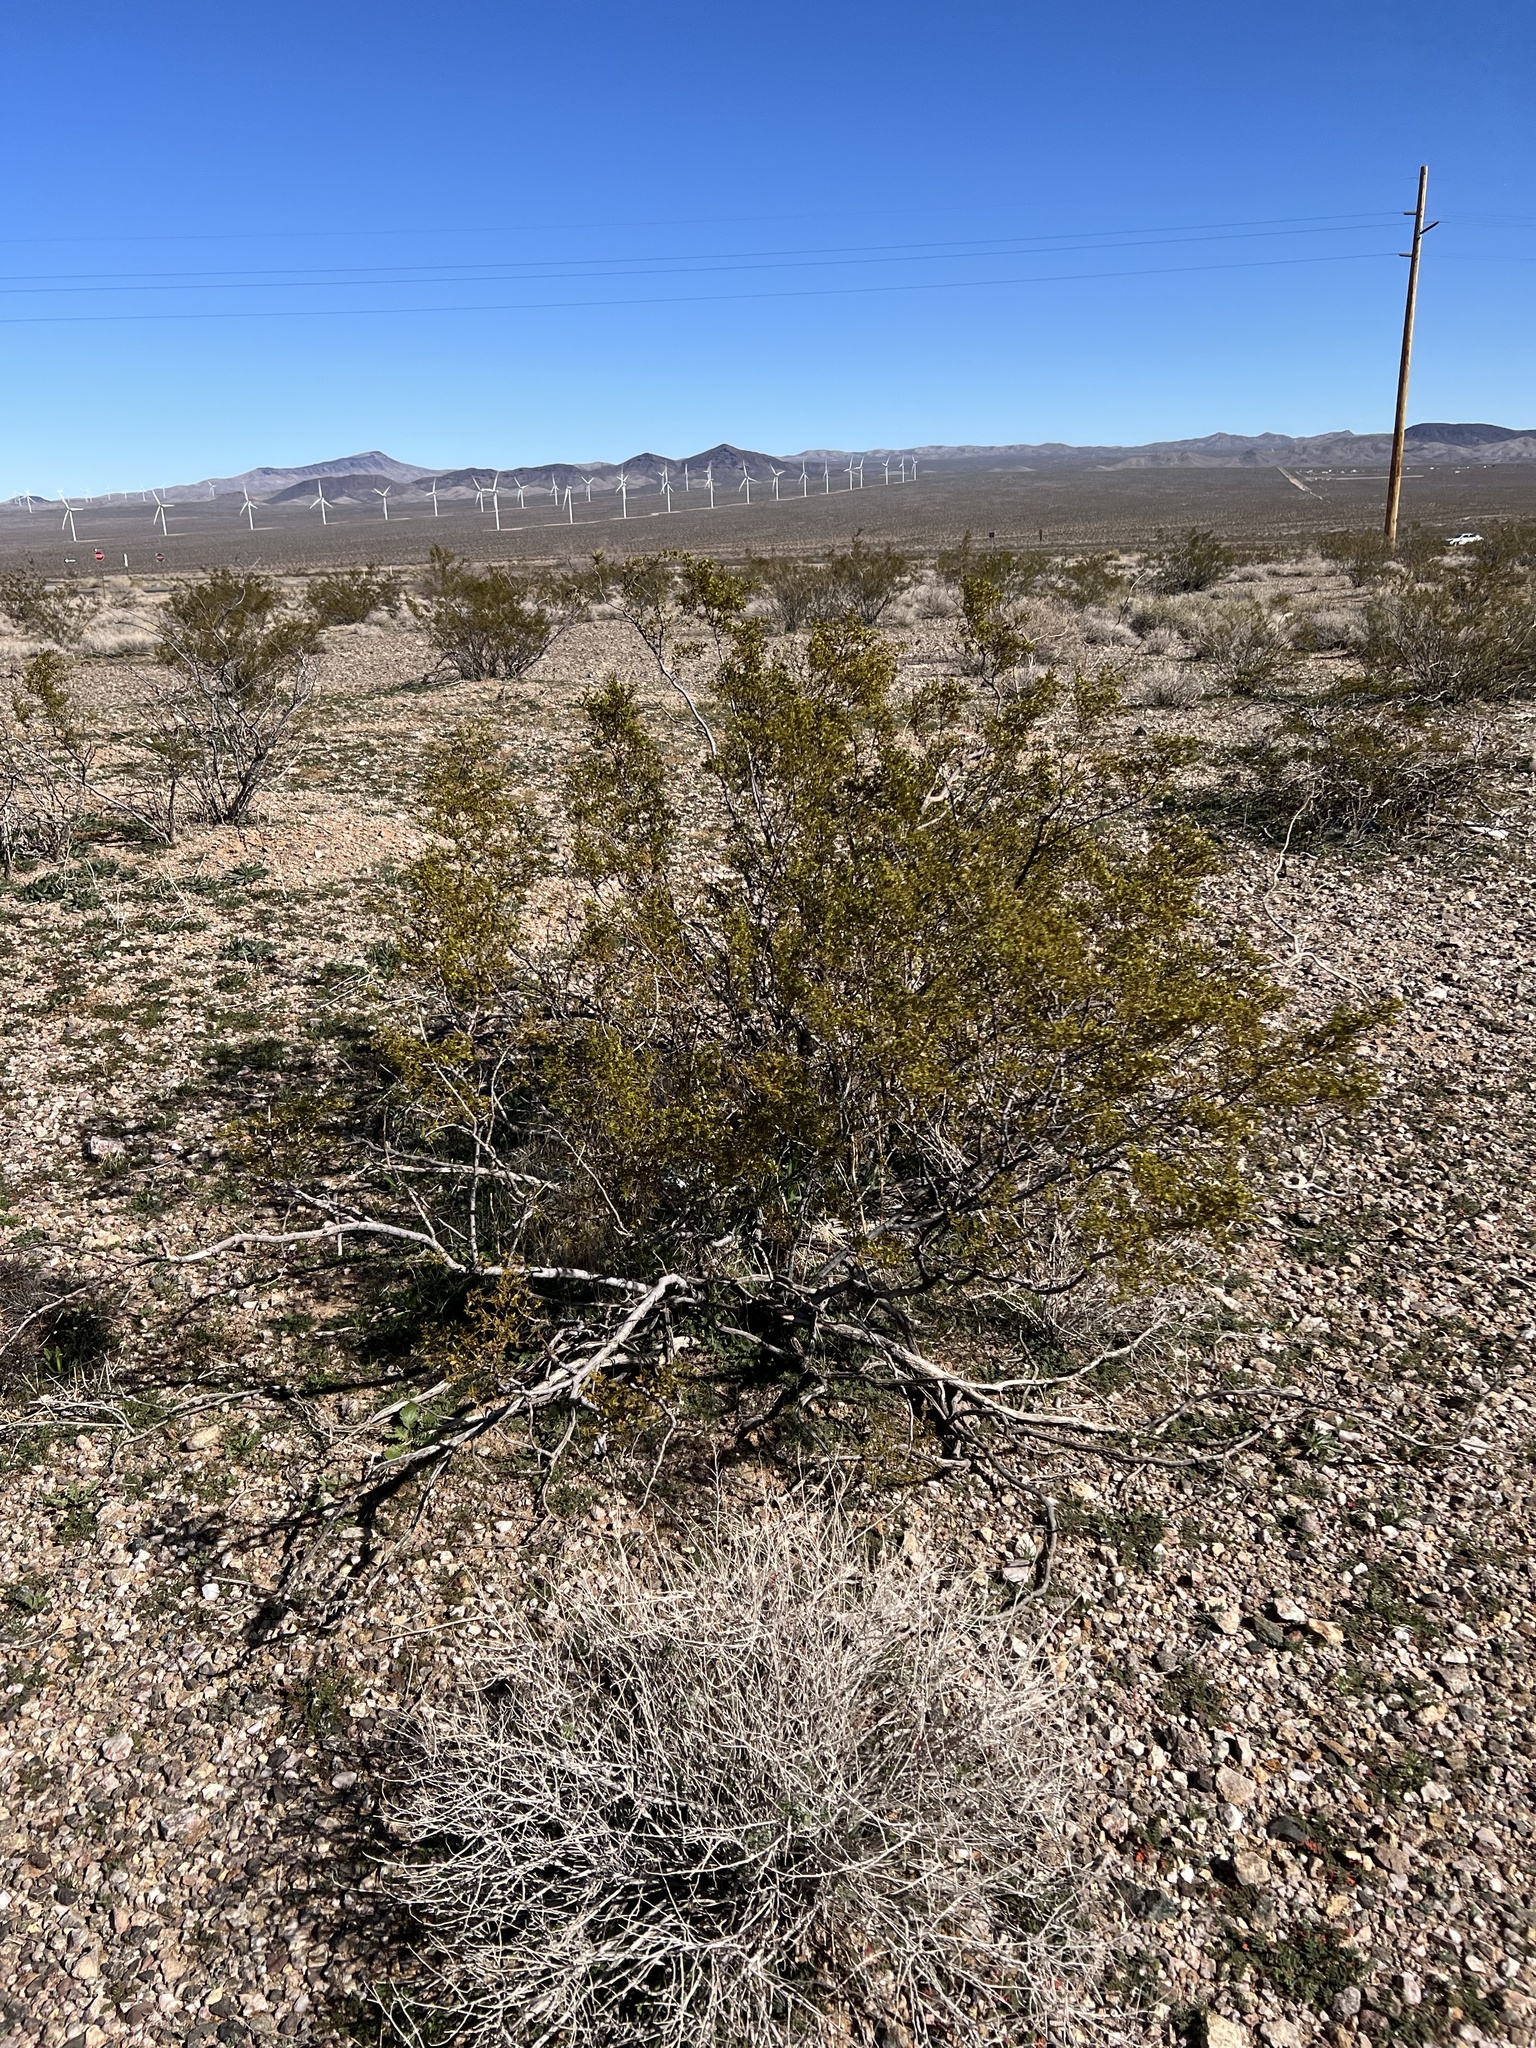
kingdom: Plantae
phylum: Tracheophyta
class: Magnoliopsida
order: Zygophyllales
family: Zygophyllaceae
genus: Larrea
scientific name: Larrea tridentata
